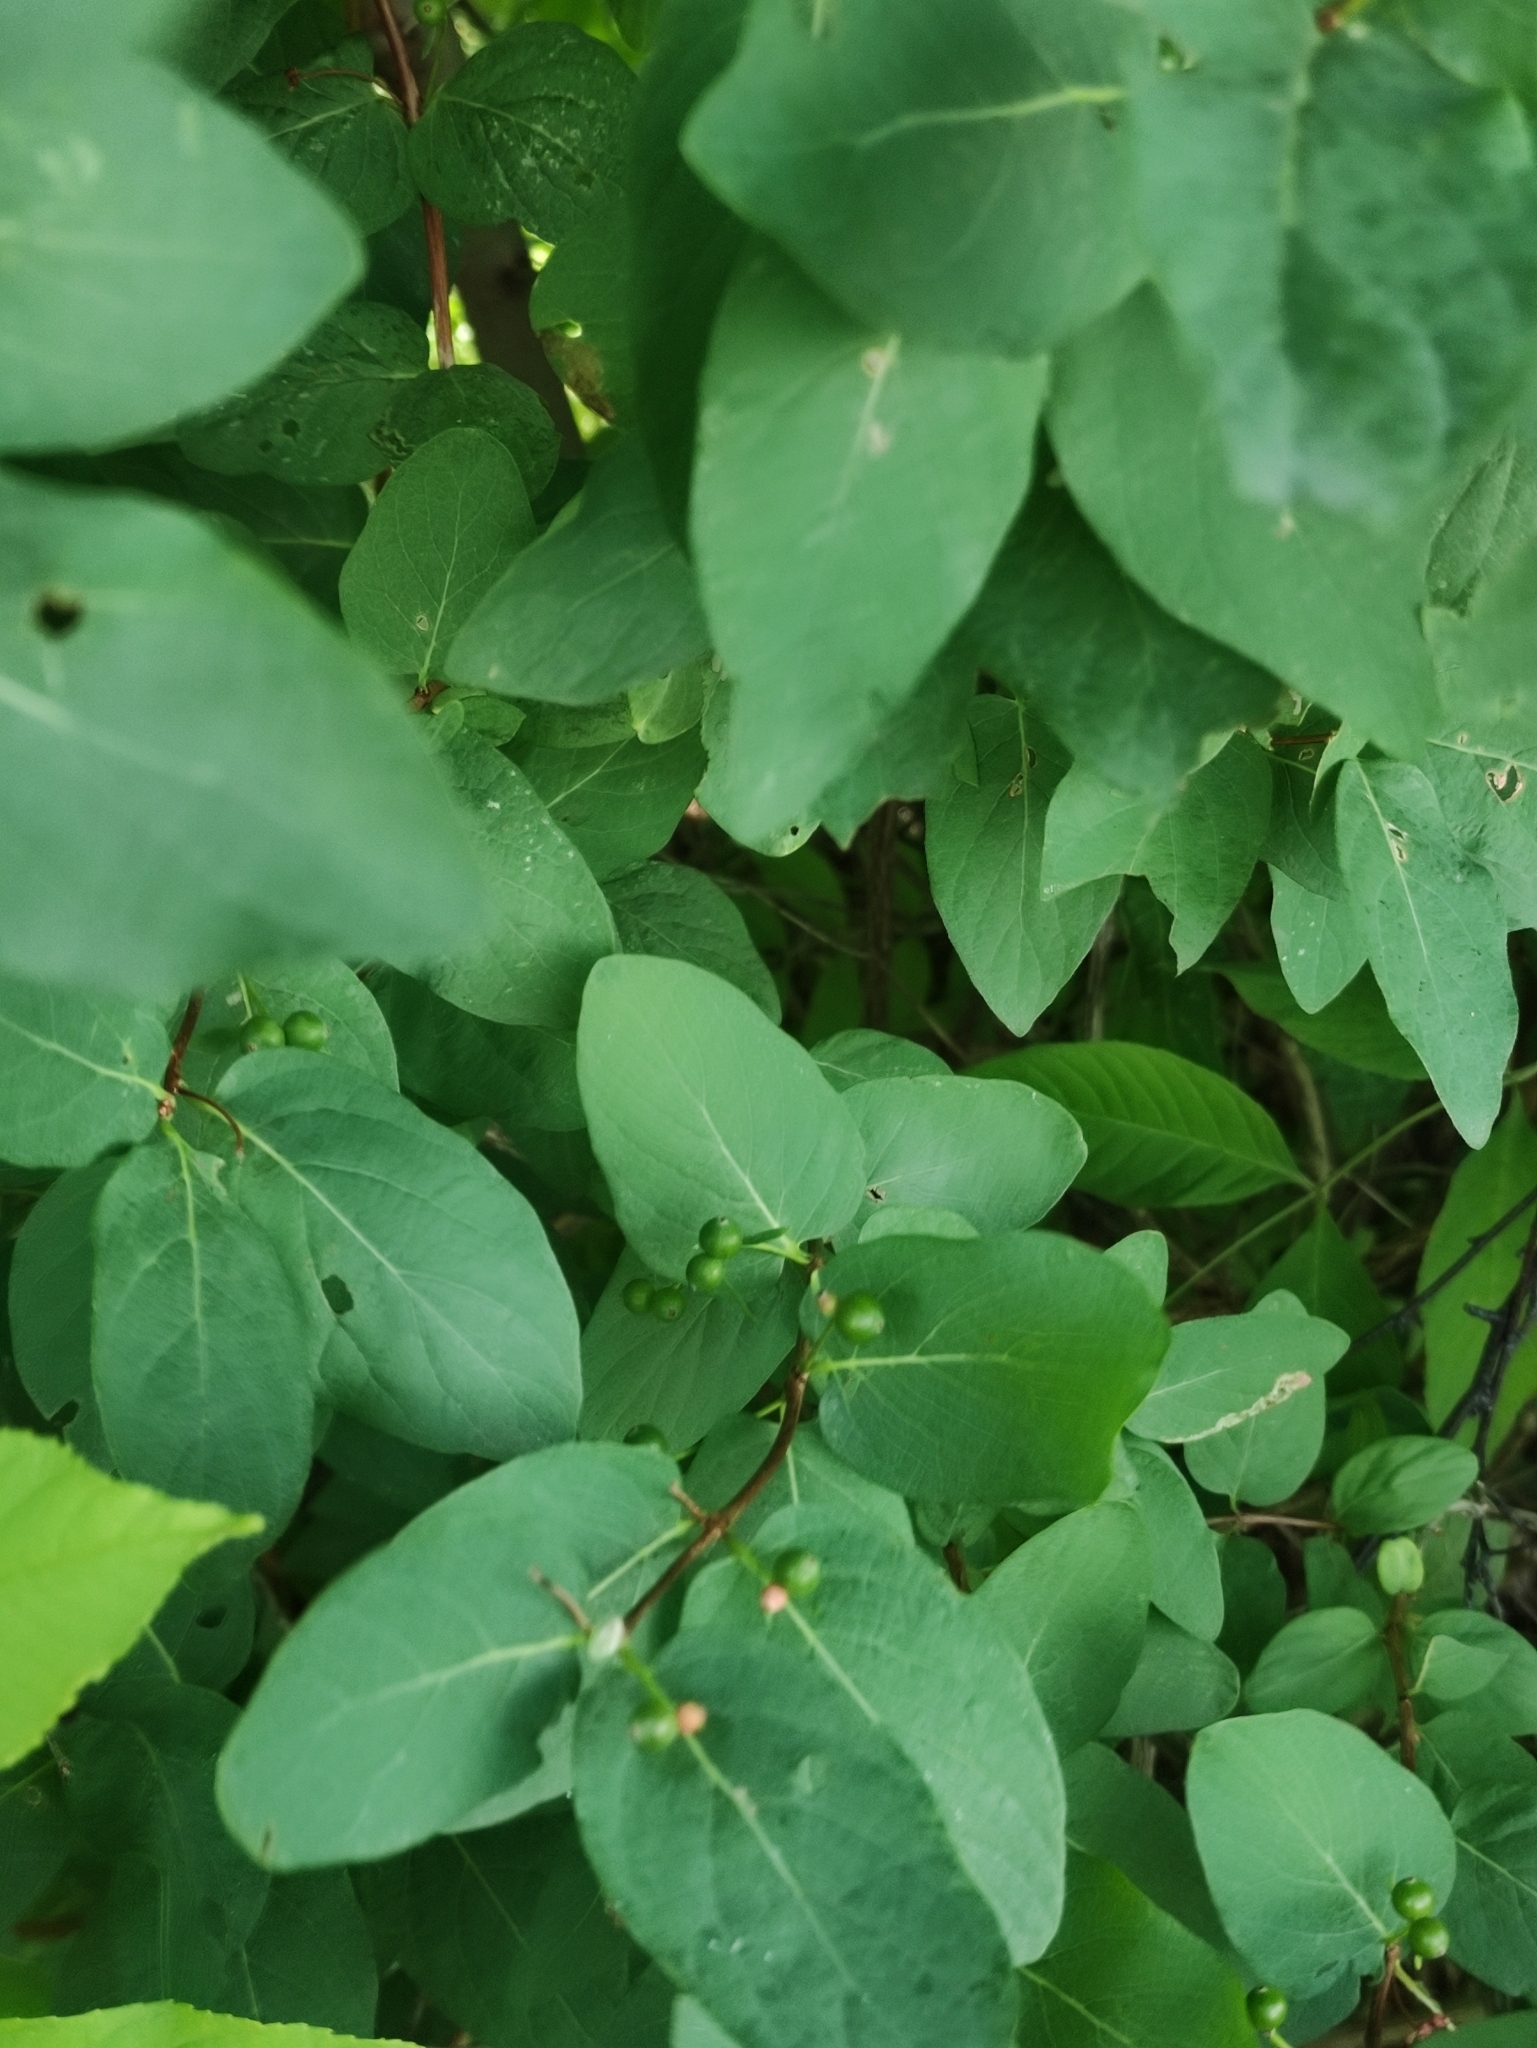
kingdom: Plantae
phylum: Tracheophyta
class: Magnoliopsida
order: Dipsacales
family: Caprifoliaceae
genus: Lonicera
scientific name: Lonicera tatarica
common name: Tatarian honeysuckle
